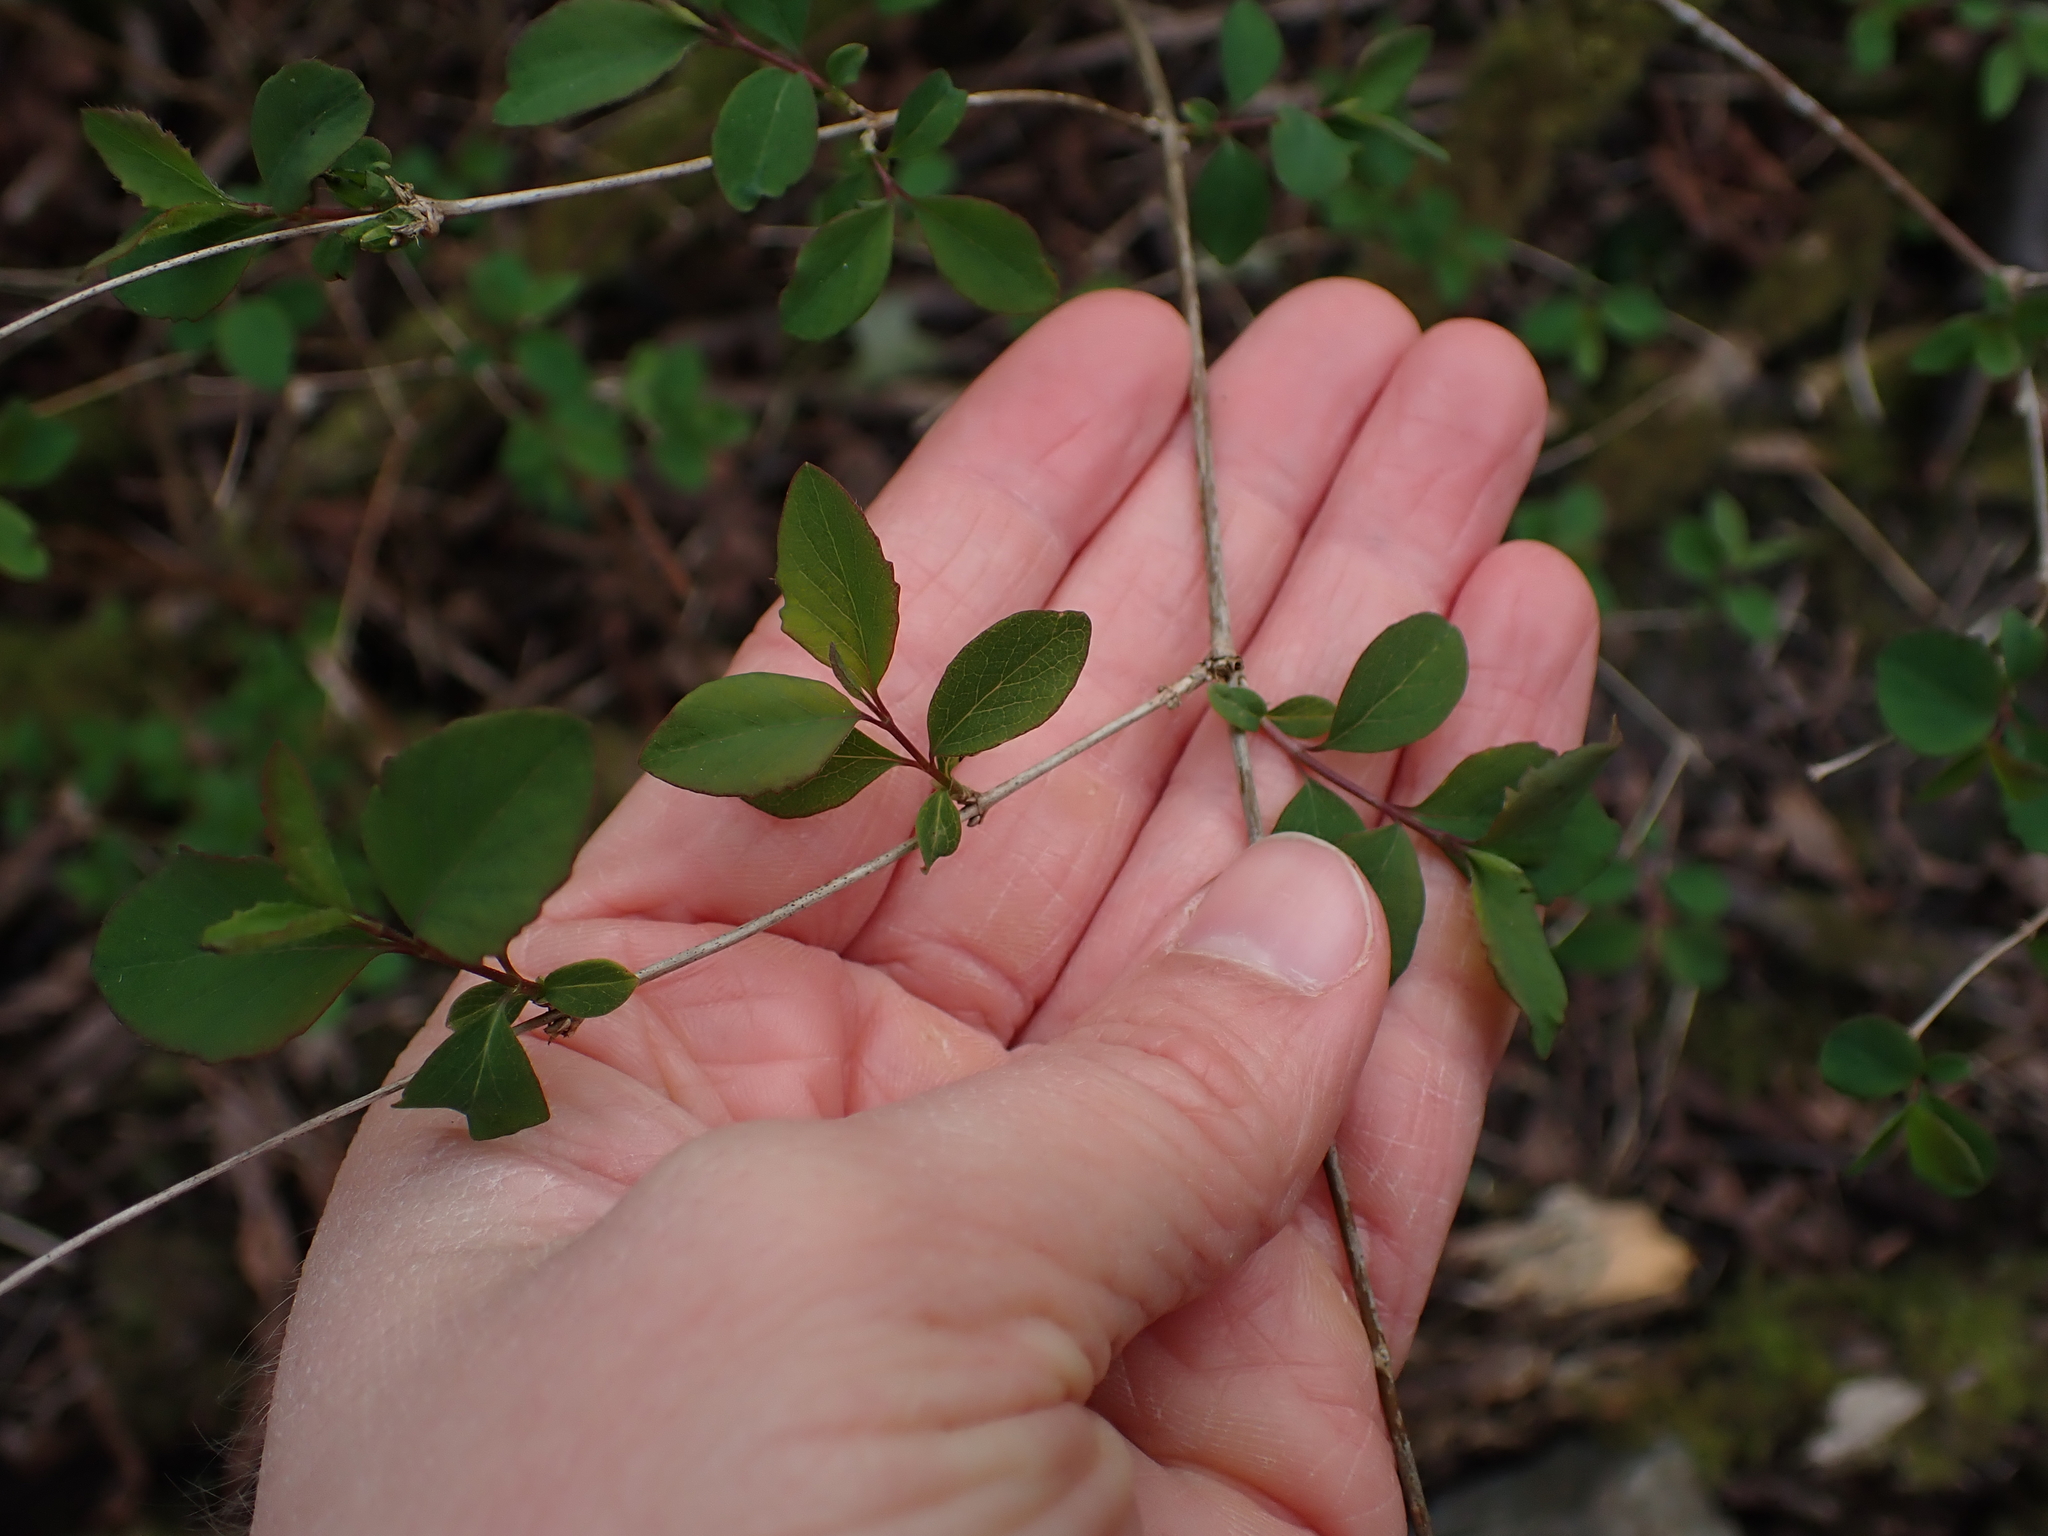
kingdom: Plantae
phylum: Tracheophyta
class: Magnoliopsida
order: Dipsacales
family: Caprifoliaceae
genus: Symphoricarpos
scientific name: Symphoricarpos albus
